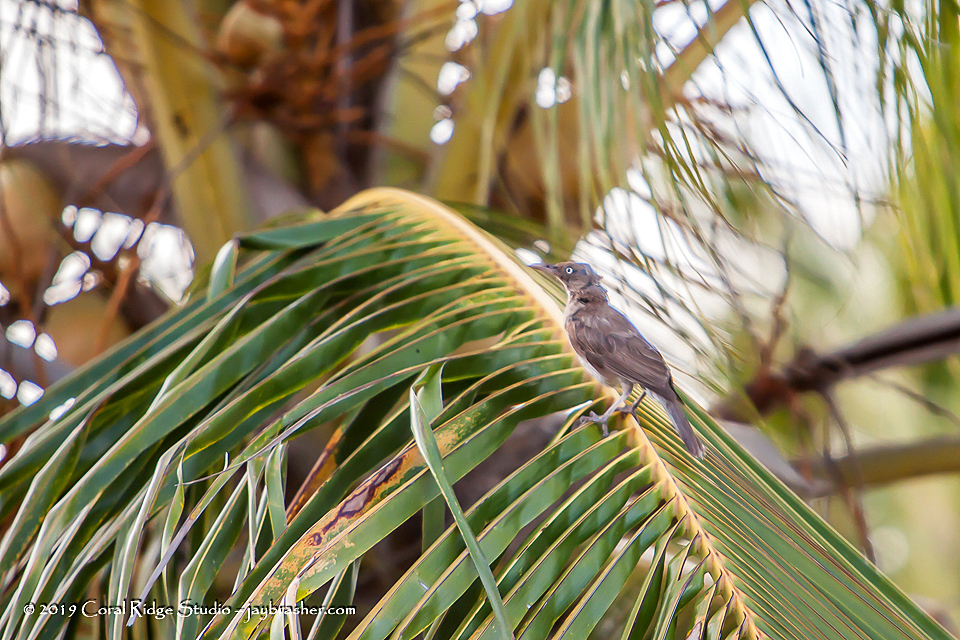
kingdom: Animalia
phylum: Chordata
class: Aves
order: Passeriformes
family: Mimidae
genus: Margarops
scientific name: Margarops fuscatus
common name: Pearly-eyed thrasher
